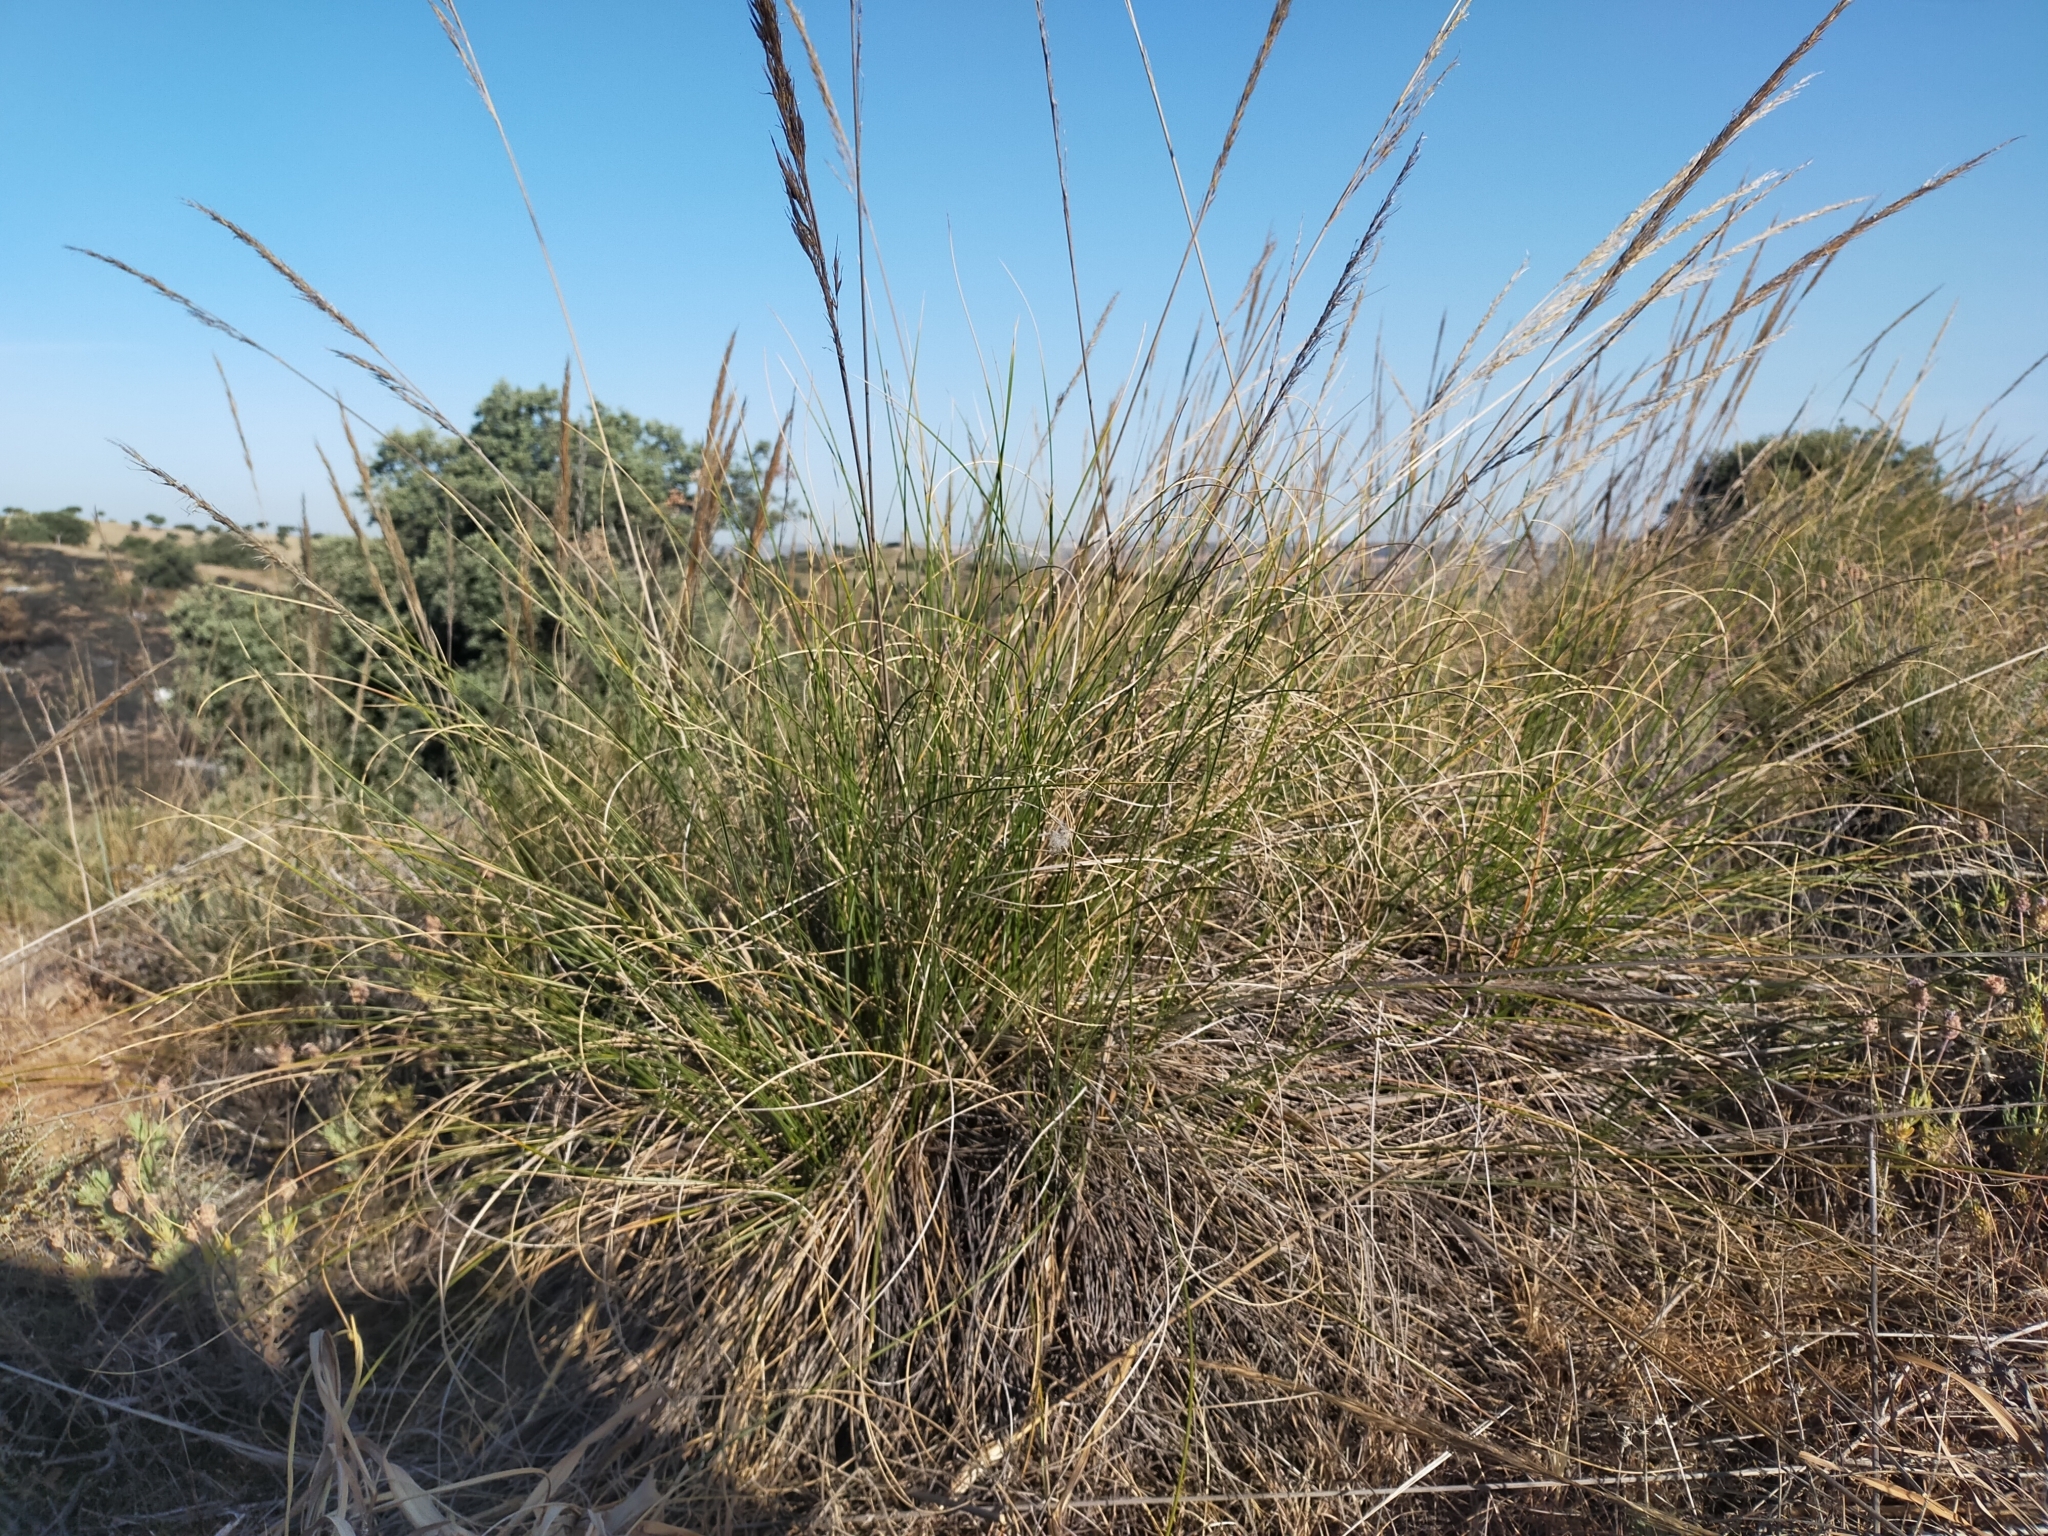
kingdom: Plantae
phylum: Tracheophyta
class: Liliopsida
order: Poales
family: Poaceae
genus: Macrochloa
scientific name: Macrochloa tenacissima
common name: Alfa grass
